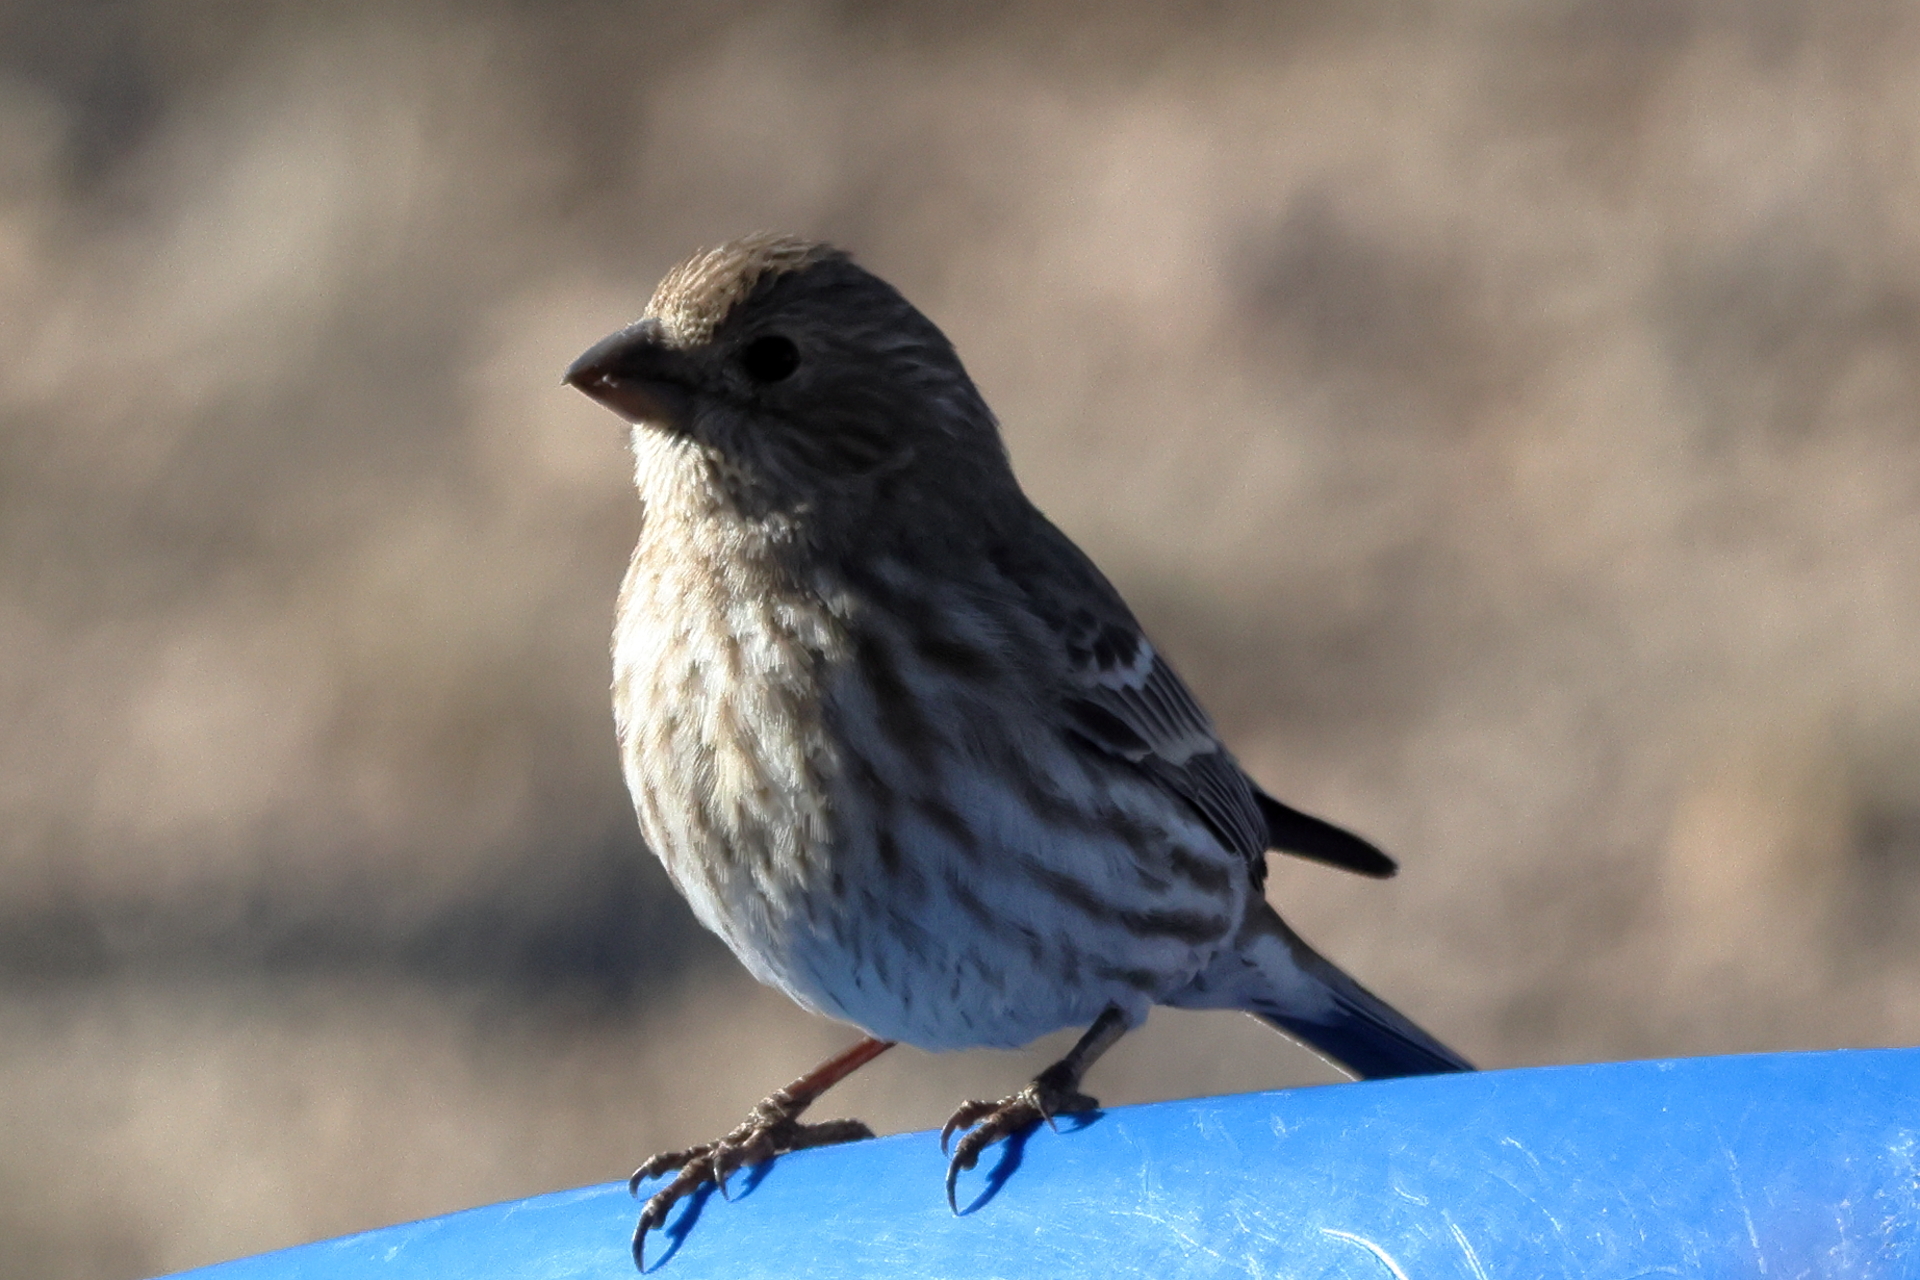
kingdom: Animalia
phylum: Chordata
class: Aves
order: Passeriformes
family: Fringillidae
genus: Haemorhous
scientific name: Haemorhous mexicanus
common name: House finch
